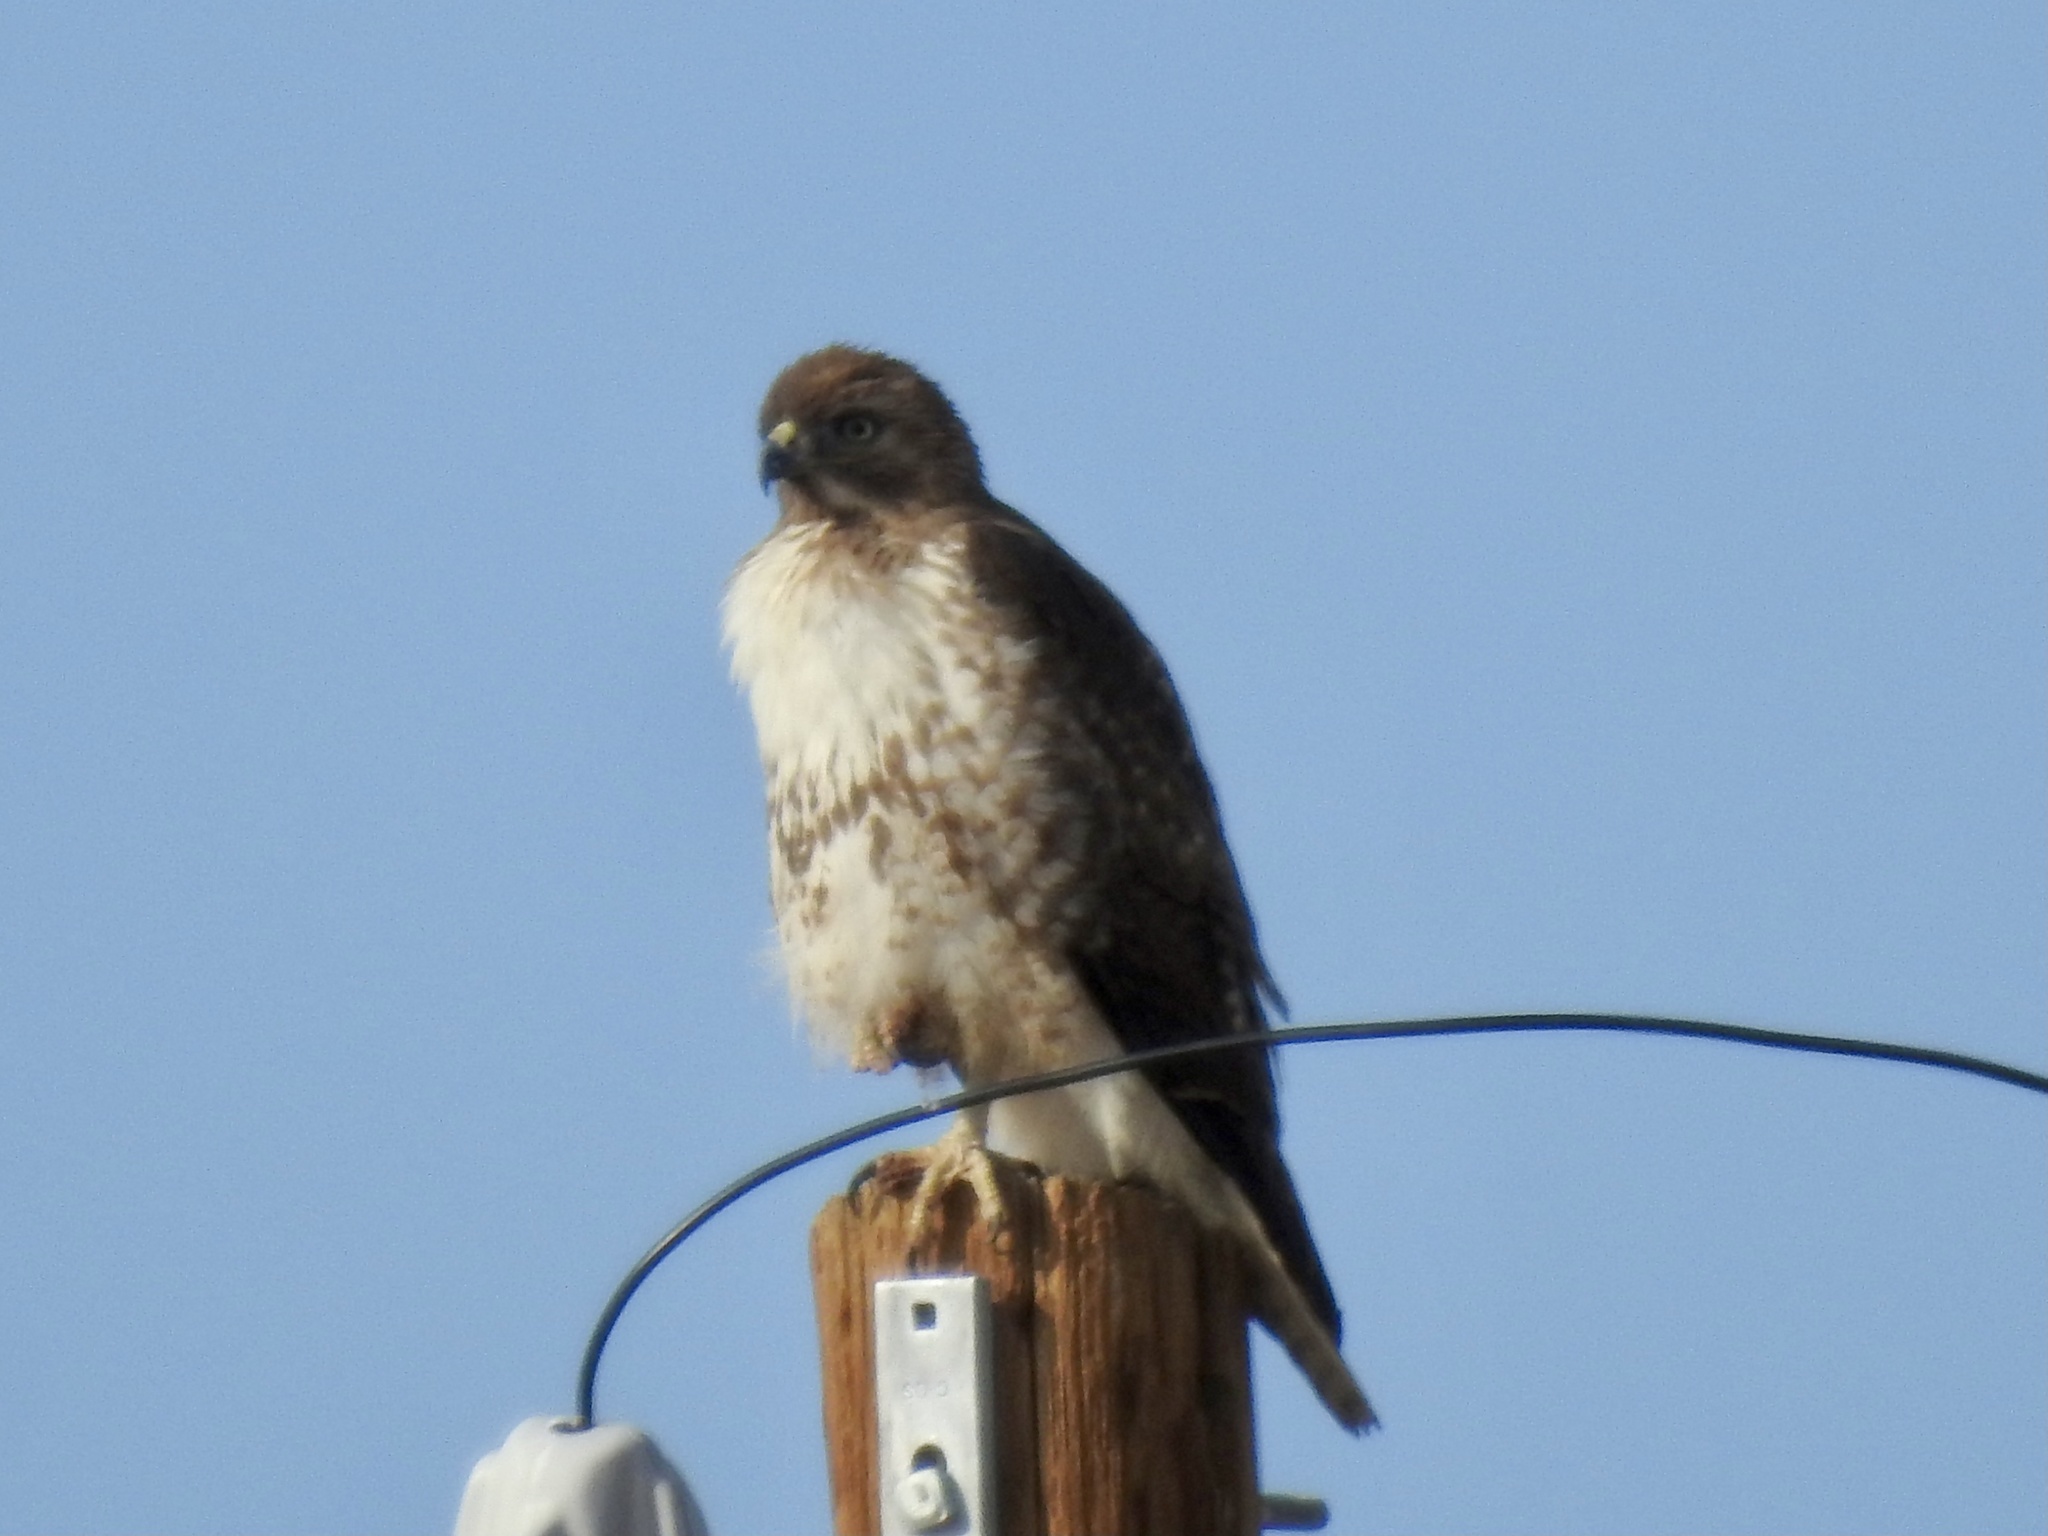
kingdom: Animalia
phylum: Chordata
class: Aves
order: Accipitriformes
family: Accipitridae
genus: Buteo
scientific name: Buteo jamaicensis
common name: Red-tailed hawk
